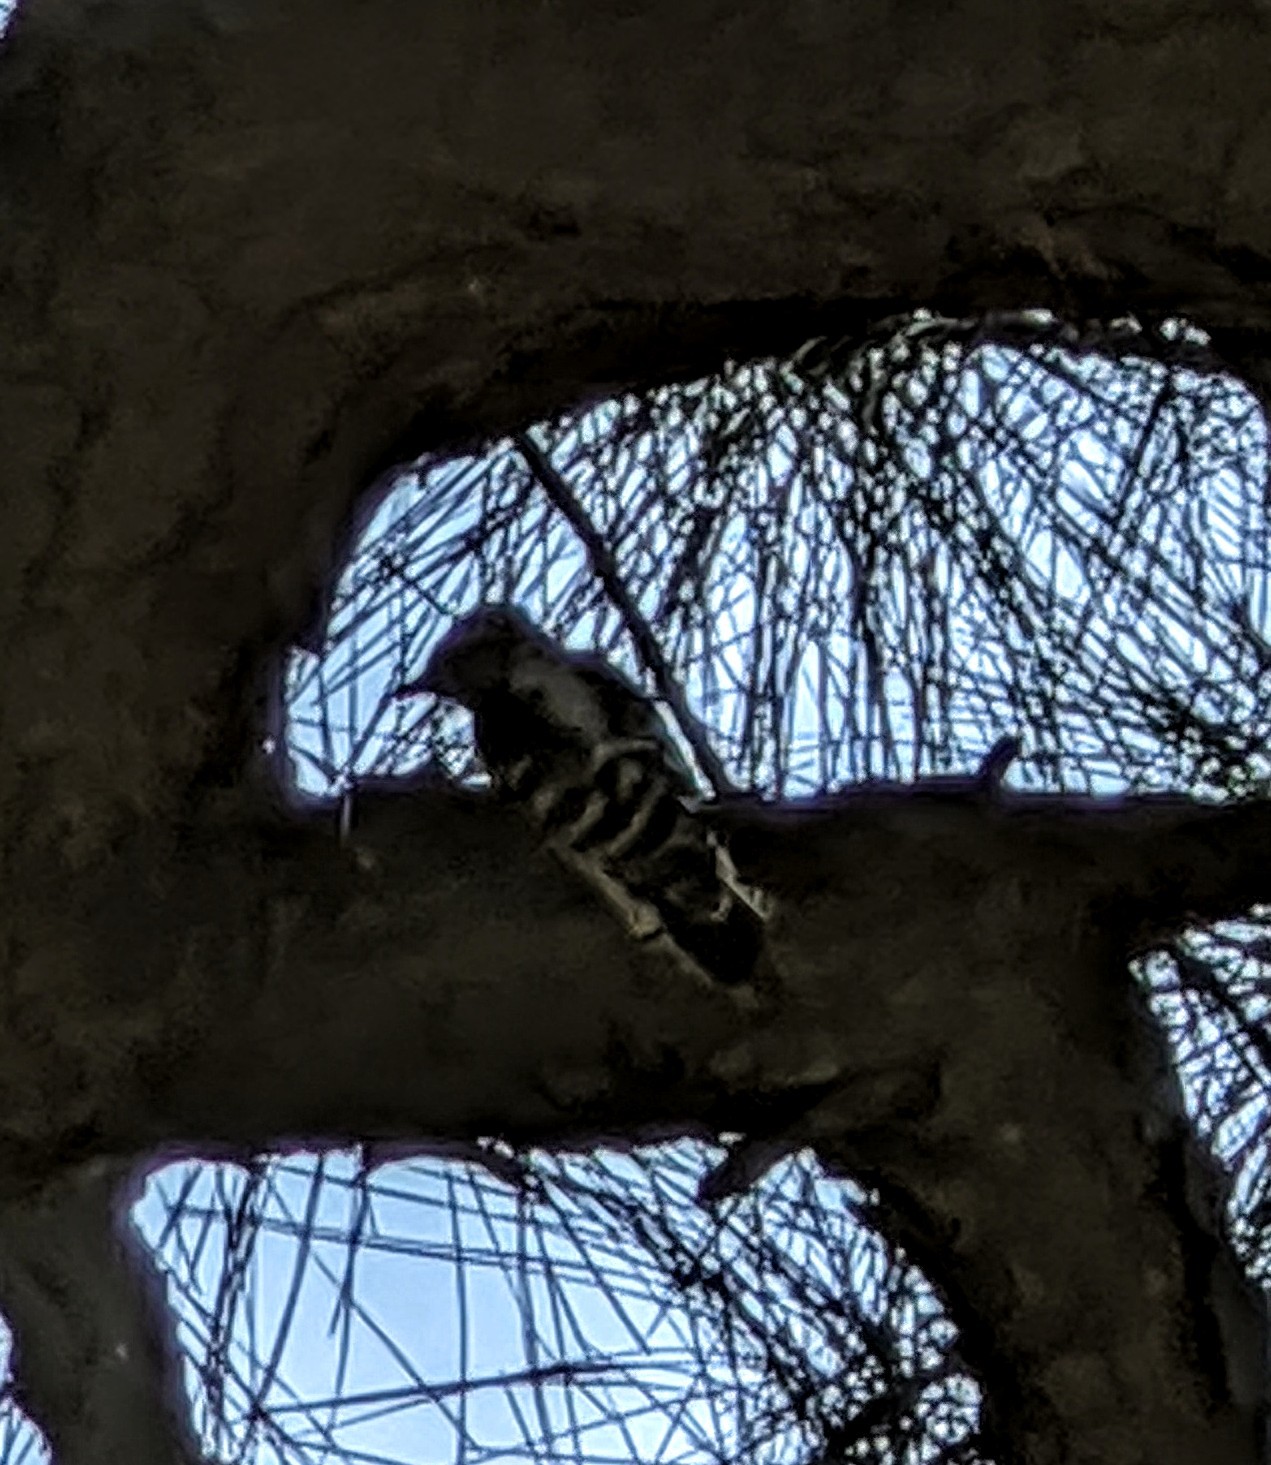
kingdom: Animalia
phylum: Chordata
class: Aves
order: Piciformes
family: Picidae
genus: Dryobates
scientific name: Dryobates pubescens
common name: Downy woodpecker
